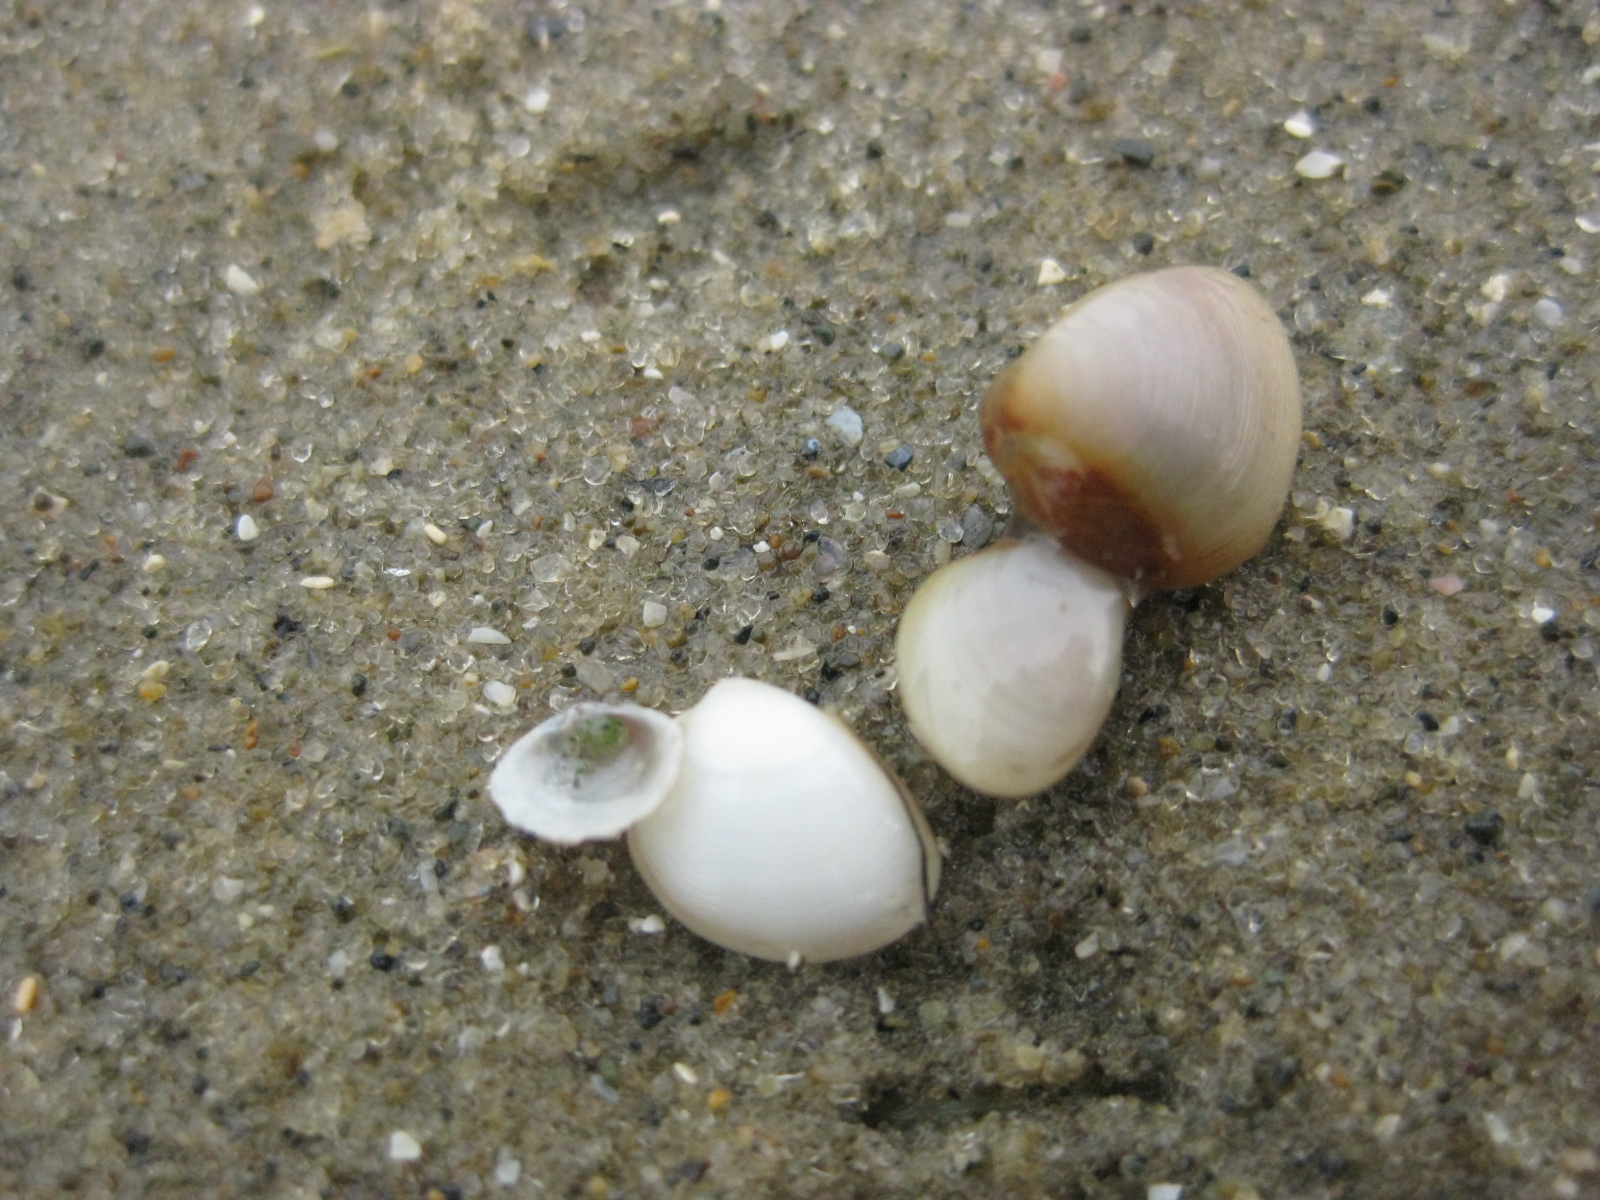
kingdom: Animalia
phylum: Mollusca
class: Bivalvia
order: Nuculida
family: Nuculidae
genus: Linucula
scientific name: Linucula hartvigiana
